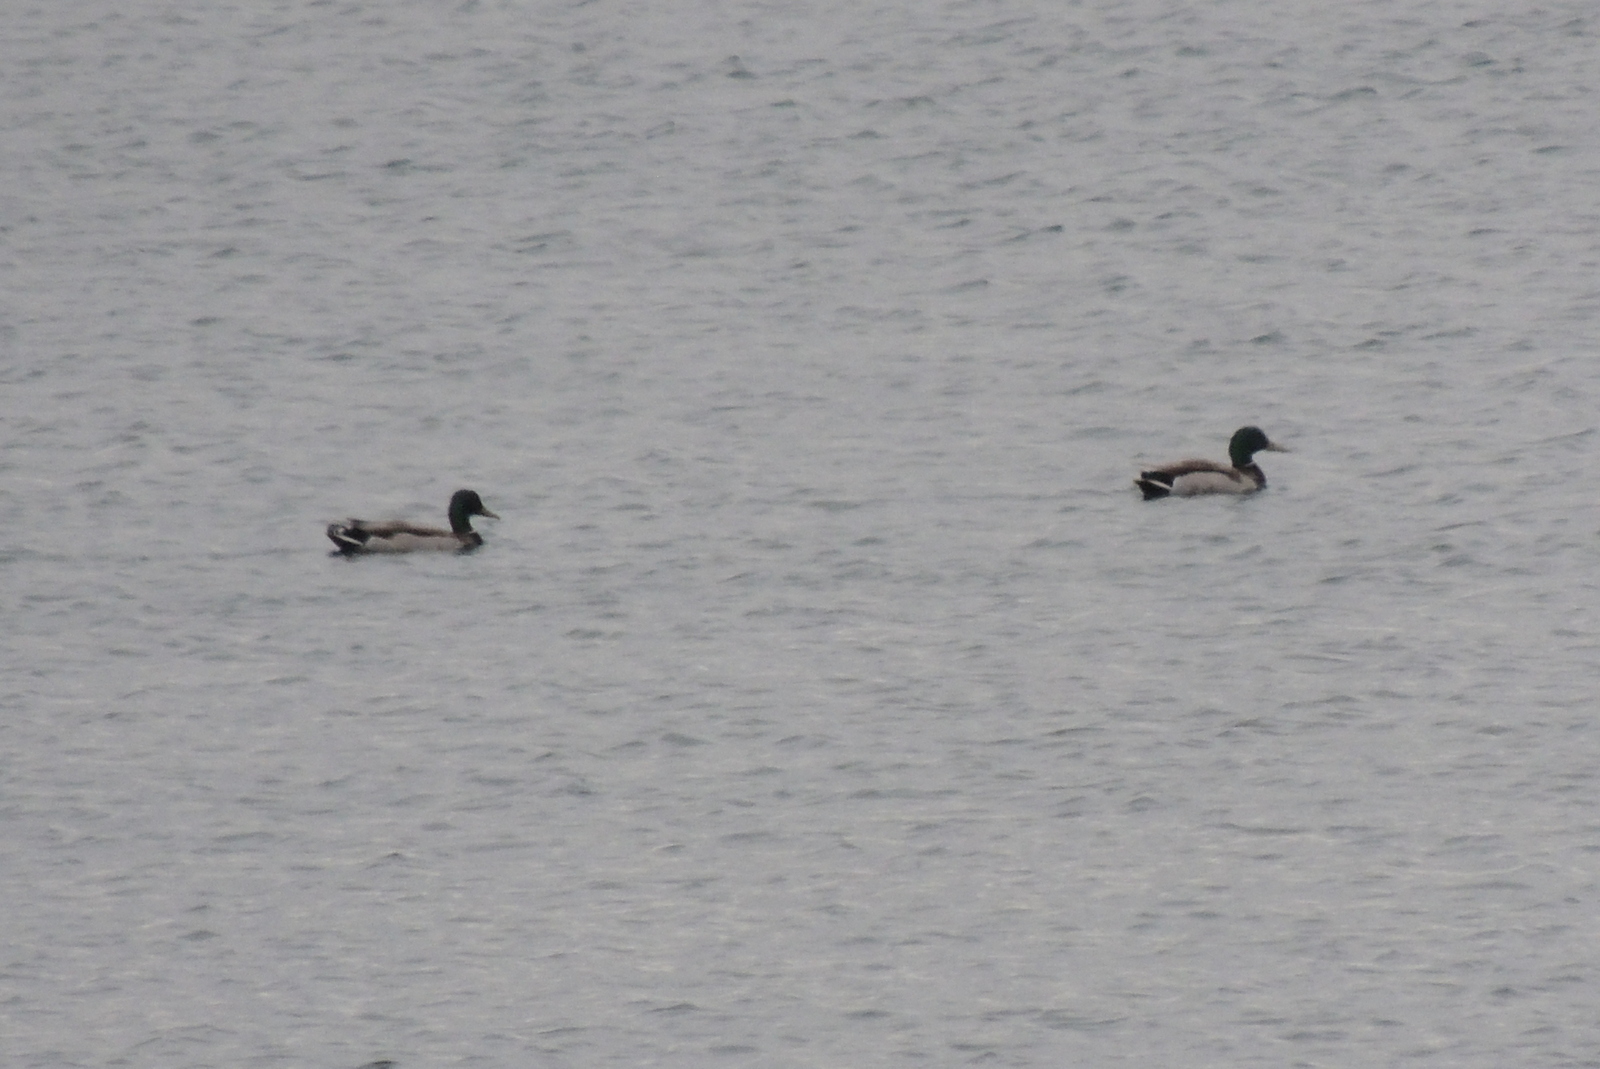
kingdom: Animalia
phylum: Chordata
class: Aves
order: Anseriformes
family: Anatidae
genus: Anas
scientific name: Anas platyrhynchos
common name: Mallard
